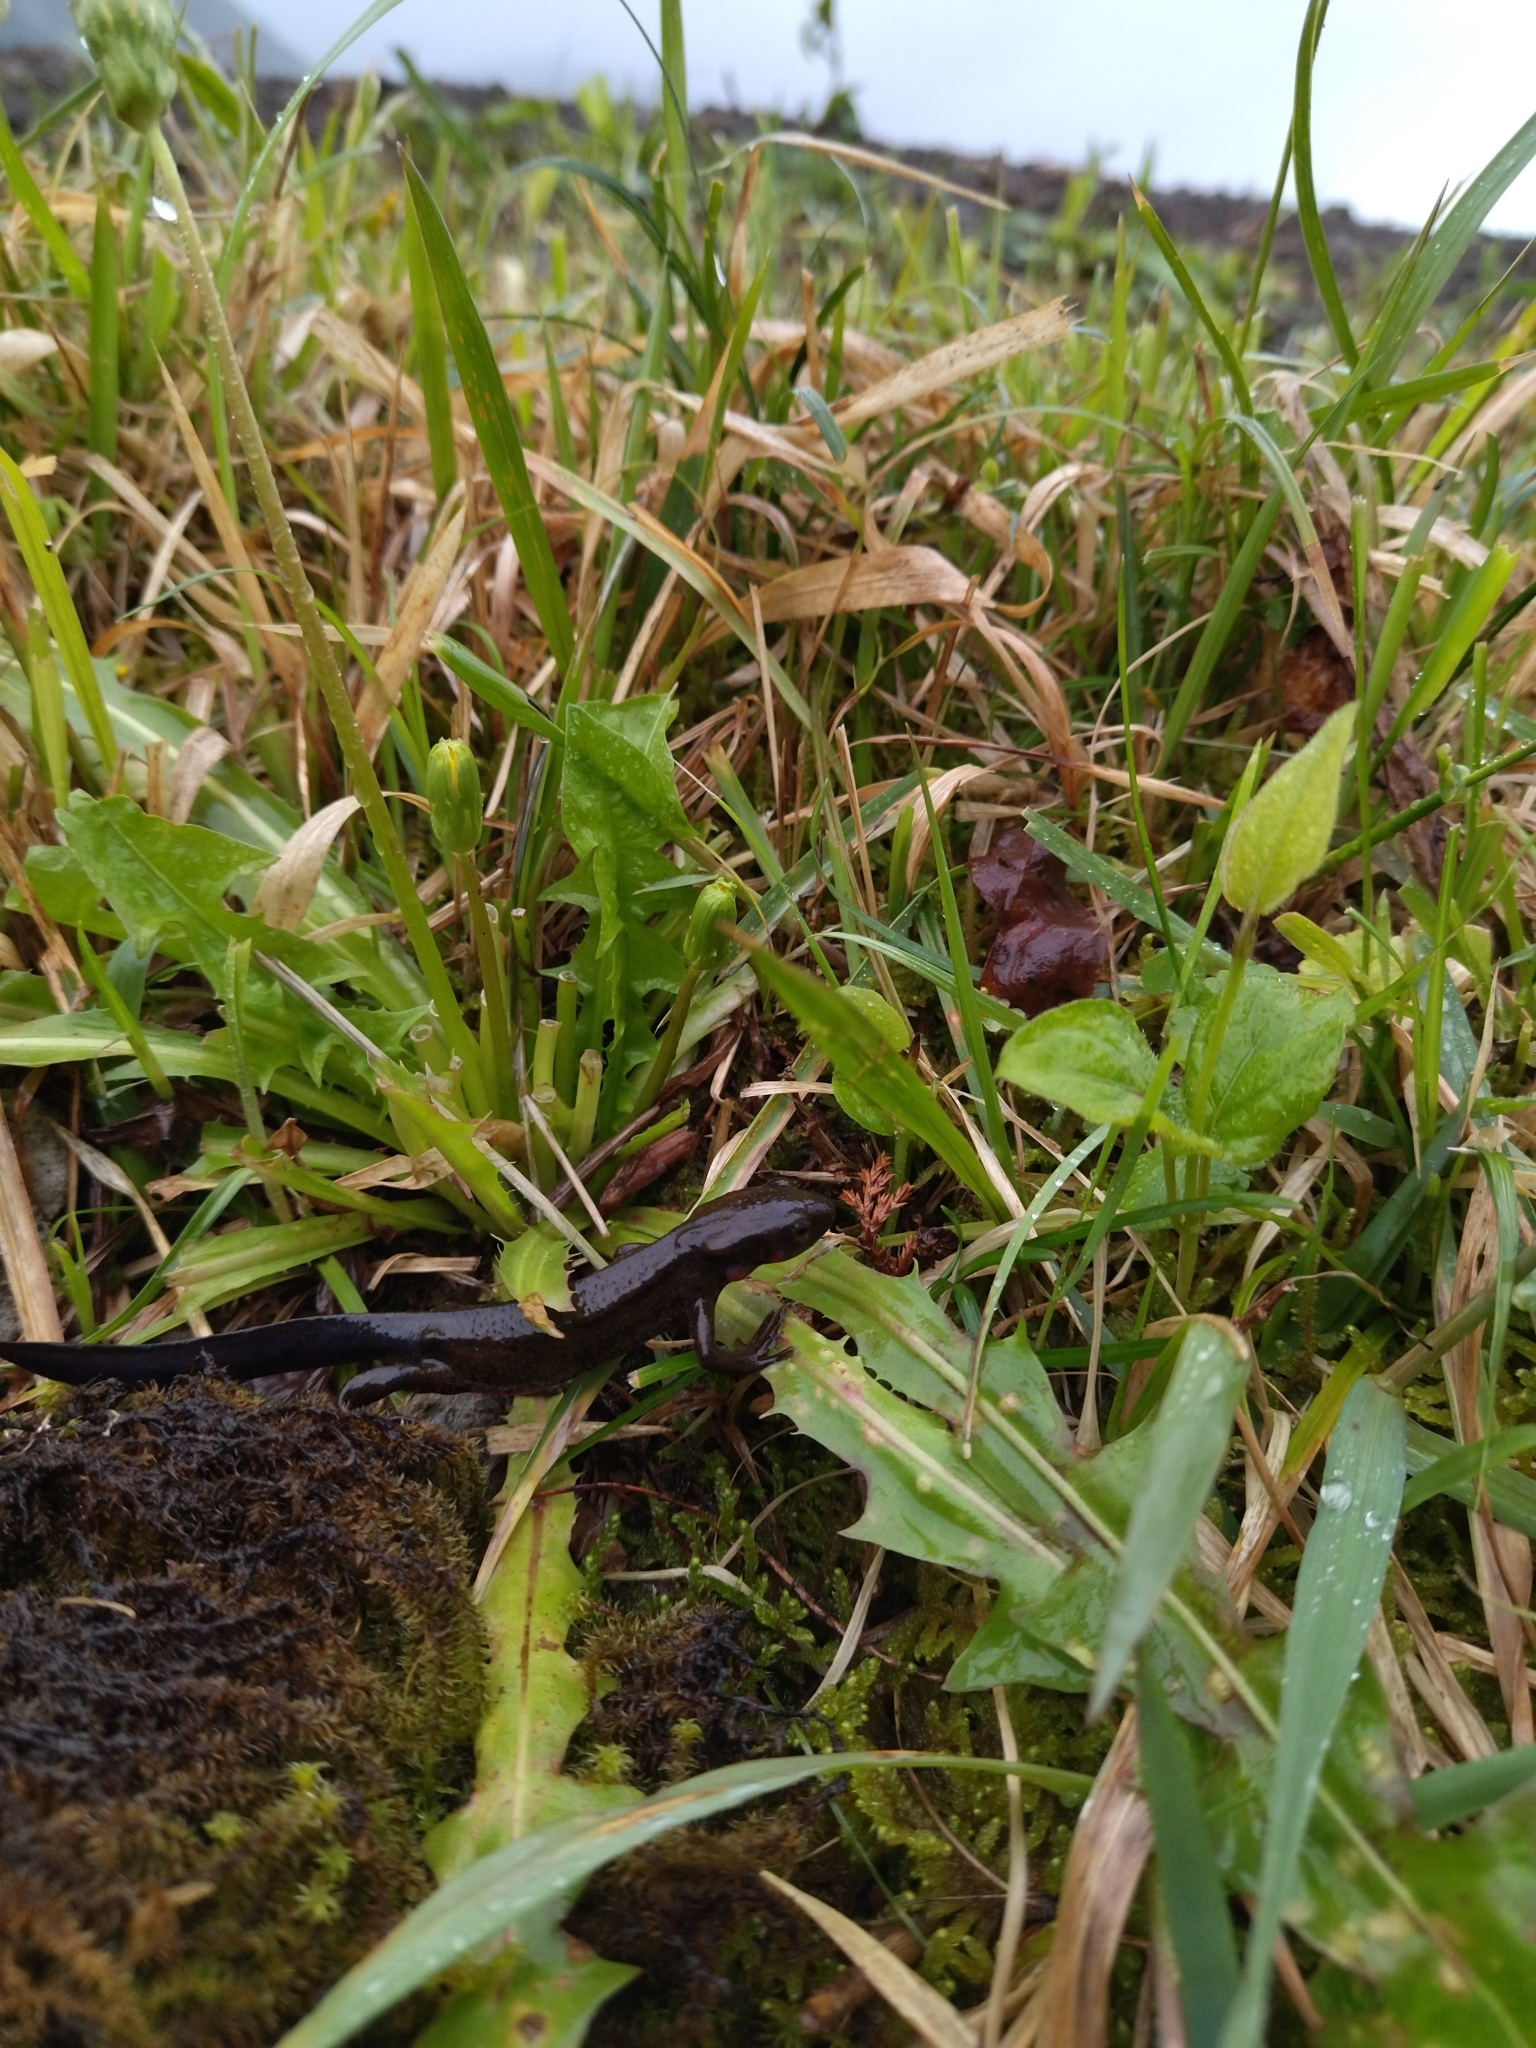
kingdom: Animalia
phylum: Chordata
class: Amphibia
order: Caudata
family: Salamandridae
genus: Cynops
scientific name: Cynops pyrrhogaster
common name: Japanese fire-bellied newt
